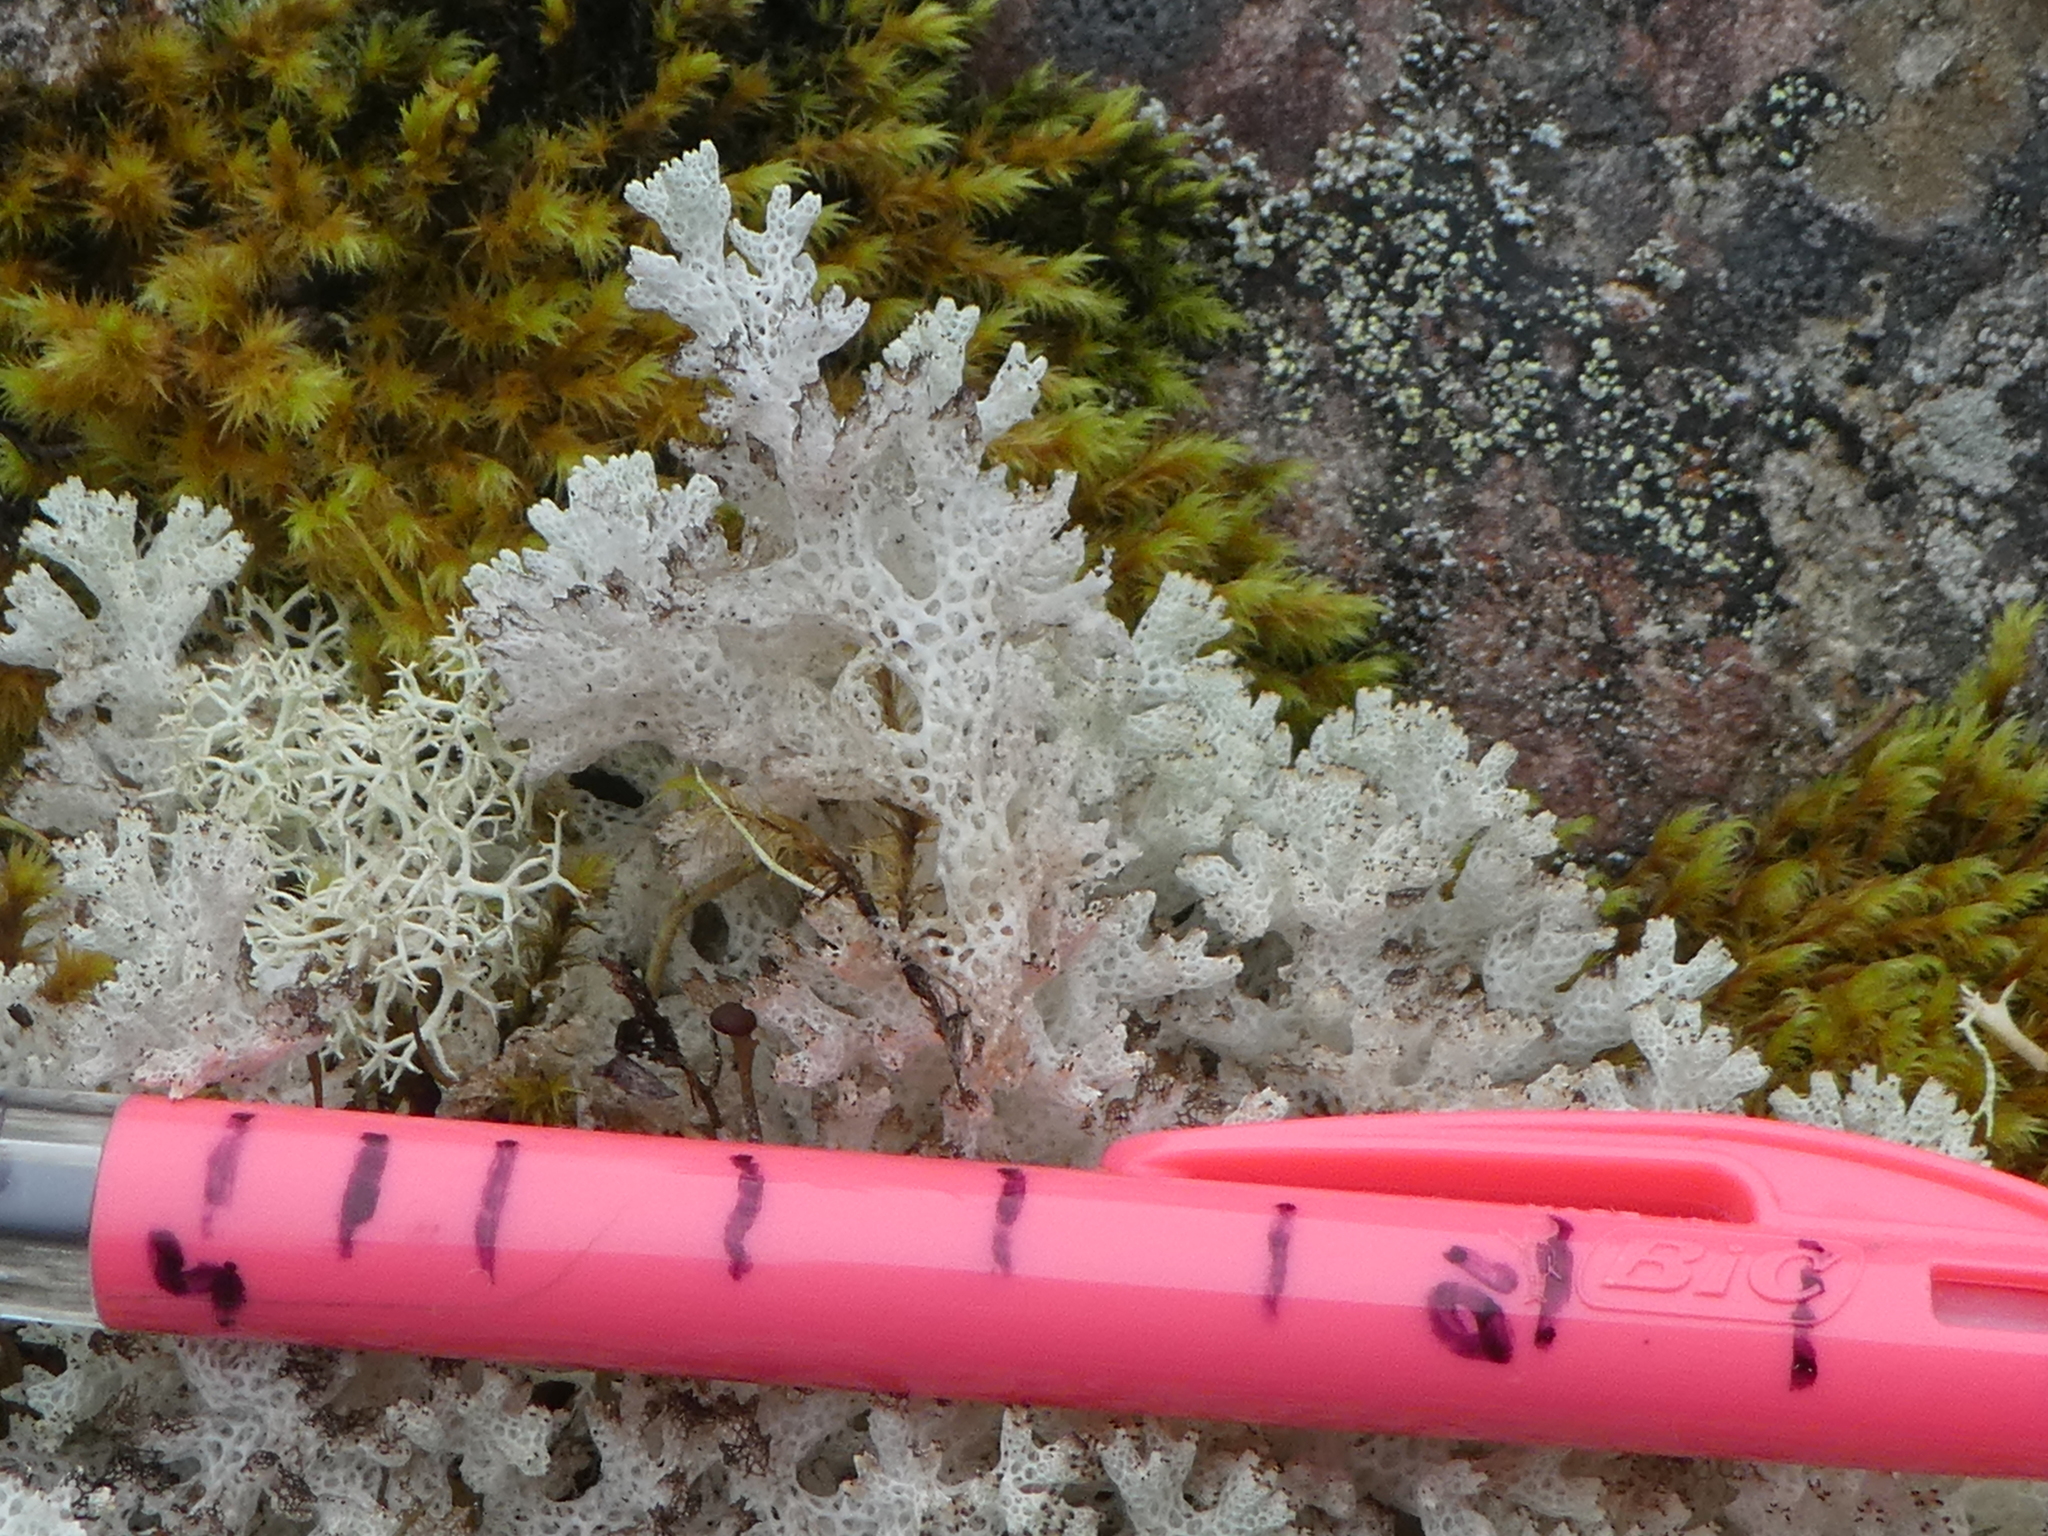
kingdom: Fungi
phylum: Ascomycota
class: Lecanoromycetes
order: Lecanorales
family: Cladoniaceae
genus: Cladonia
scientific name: Cladonia confusa
